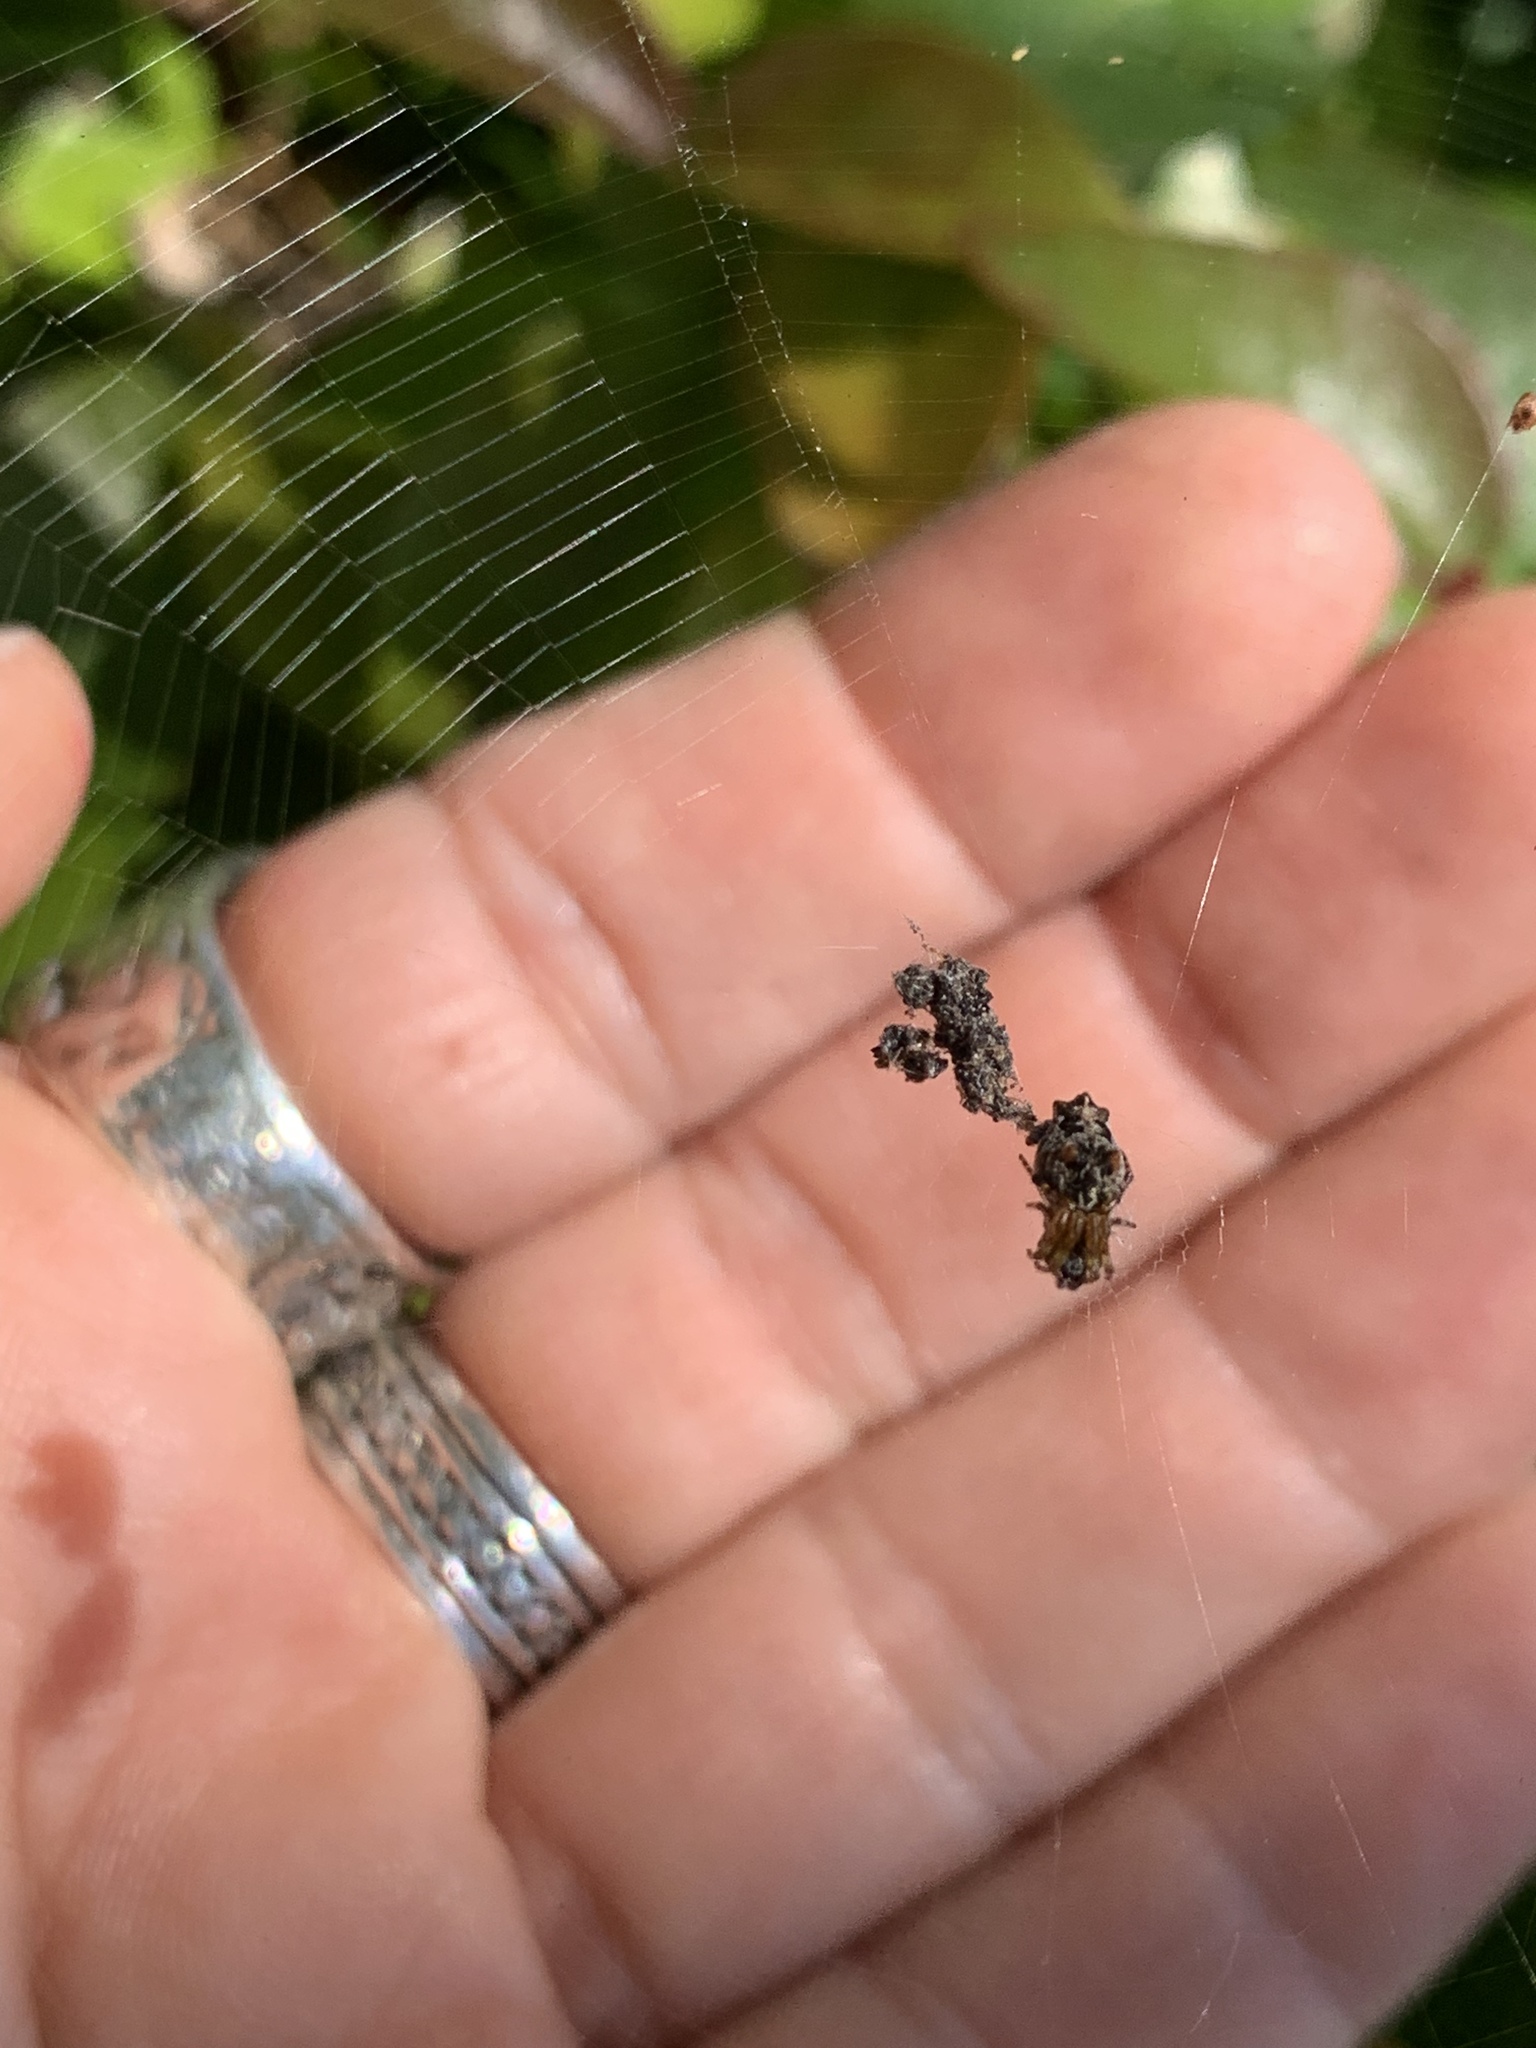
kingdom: Animalia
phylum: Arthropoda
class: Arachnida
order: Araneae
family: Araneidae
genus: Cyclosa
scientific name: Cyclosa walckenaeri
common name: Orb weavers
